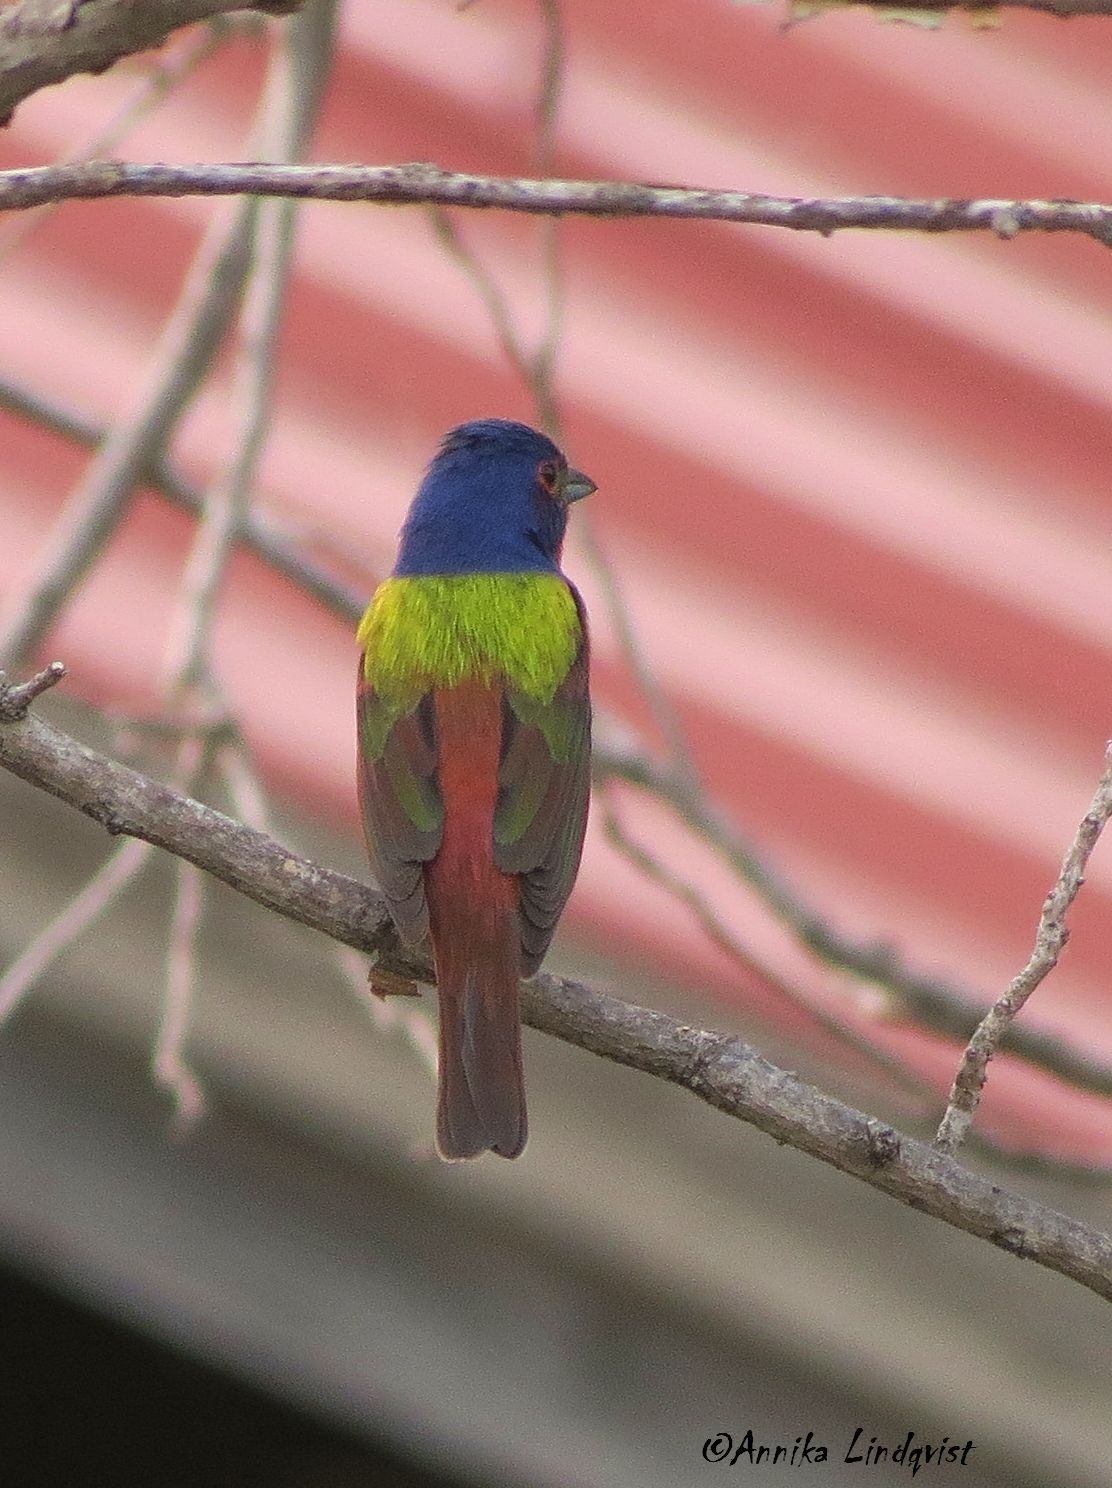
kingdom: Animalia
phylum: Chordata
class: Aves
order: Passeriformes
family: Cardinalidae
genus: Passerina
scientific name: Passerina ciris
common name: Painted bunting
